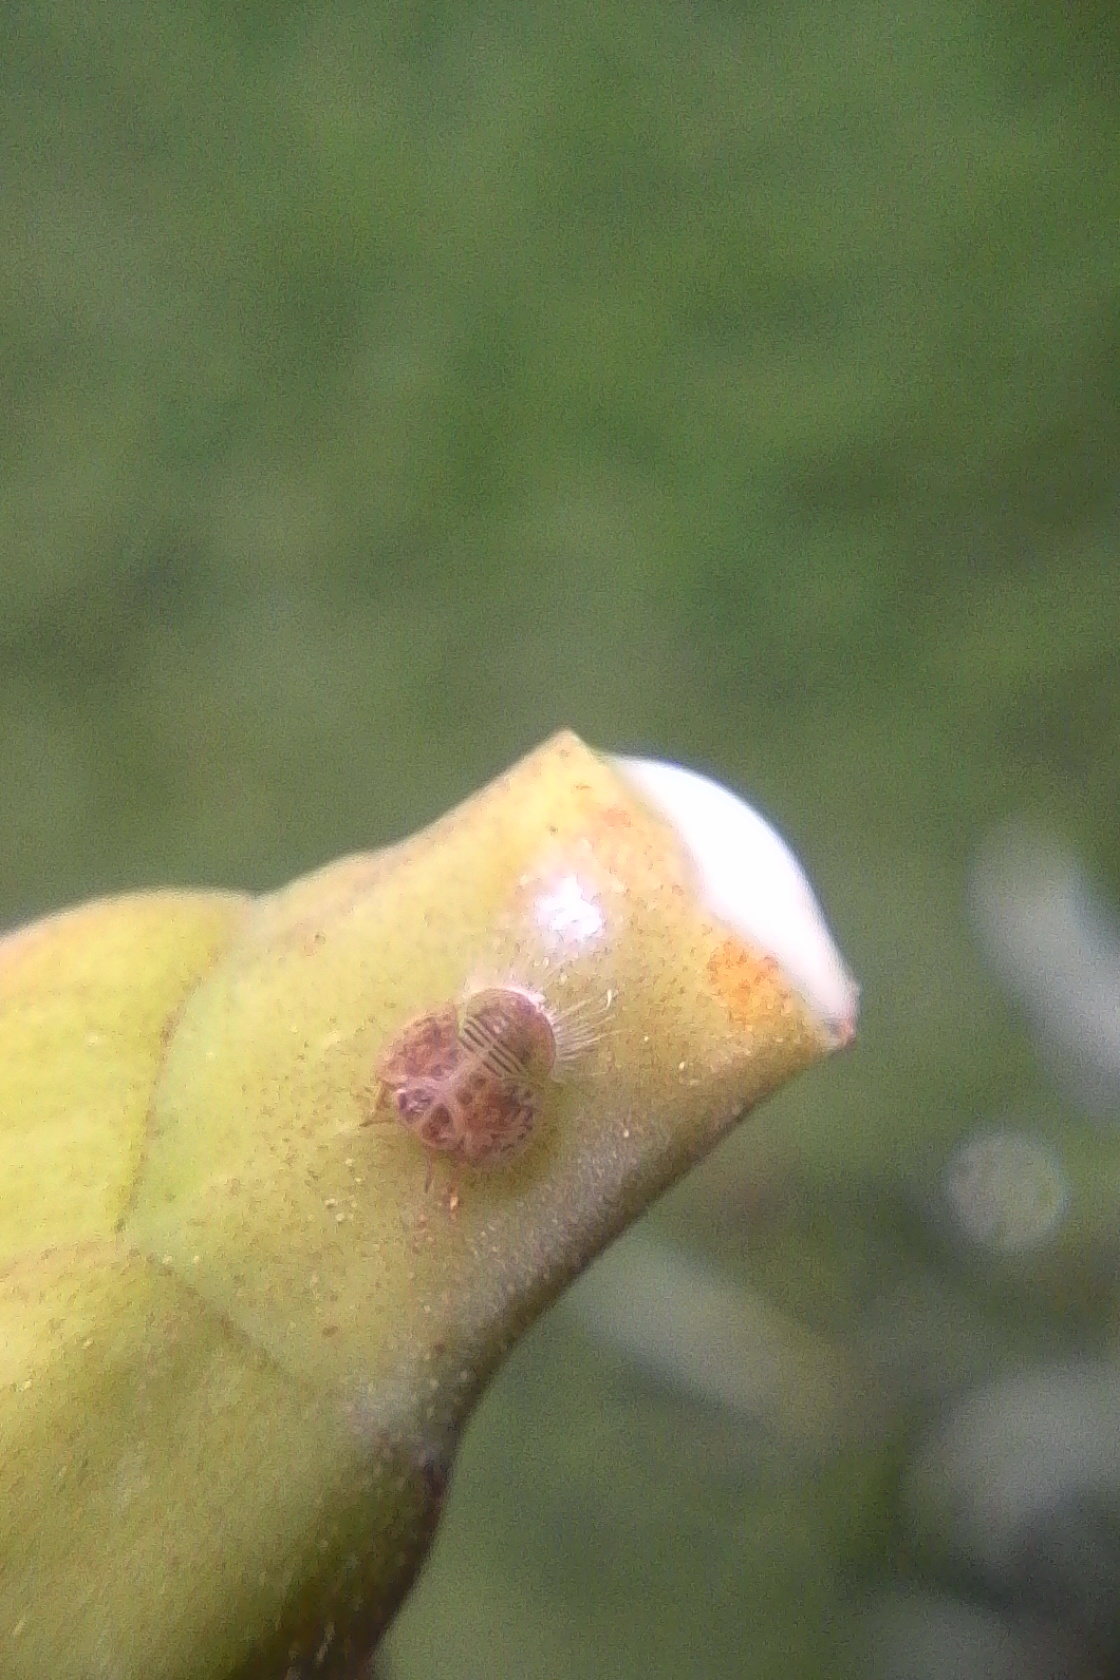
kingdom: Animalia
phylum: Arthropoda
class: Insecta
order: Hemiptera
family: Homotomidae
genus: Mycopsylla
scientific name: Mycopsylla obliqua
